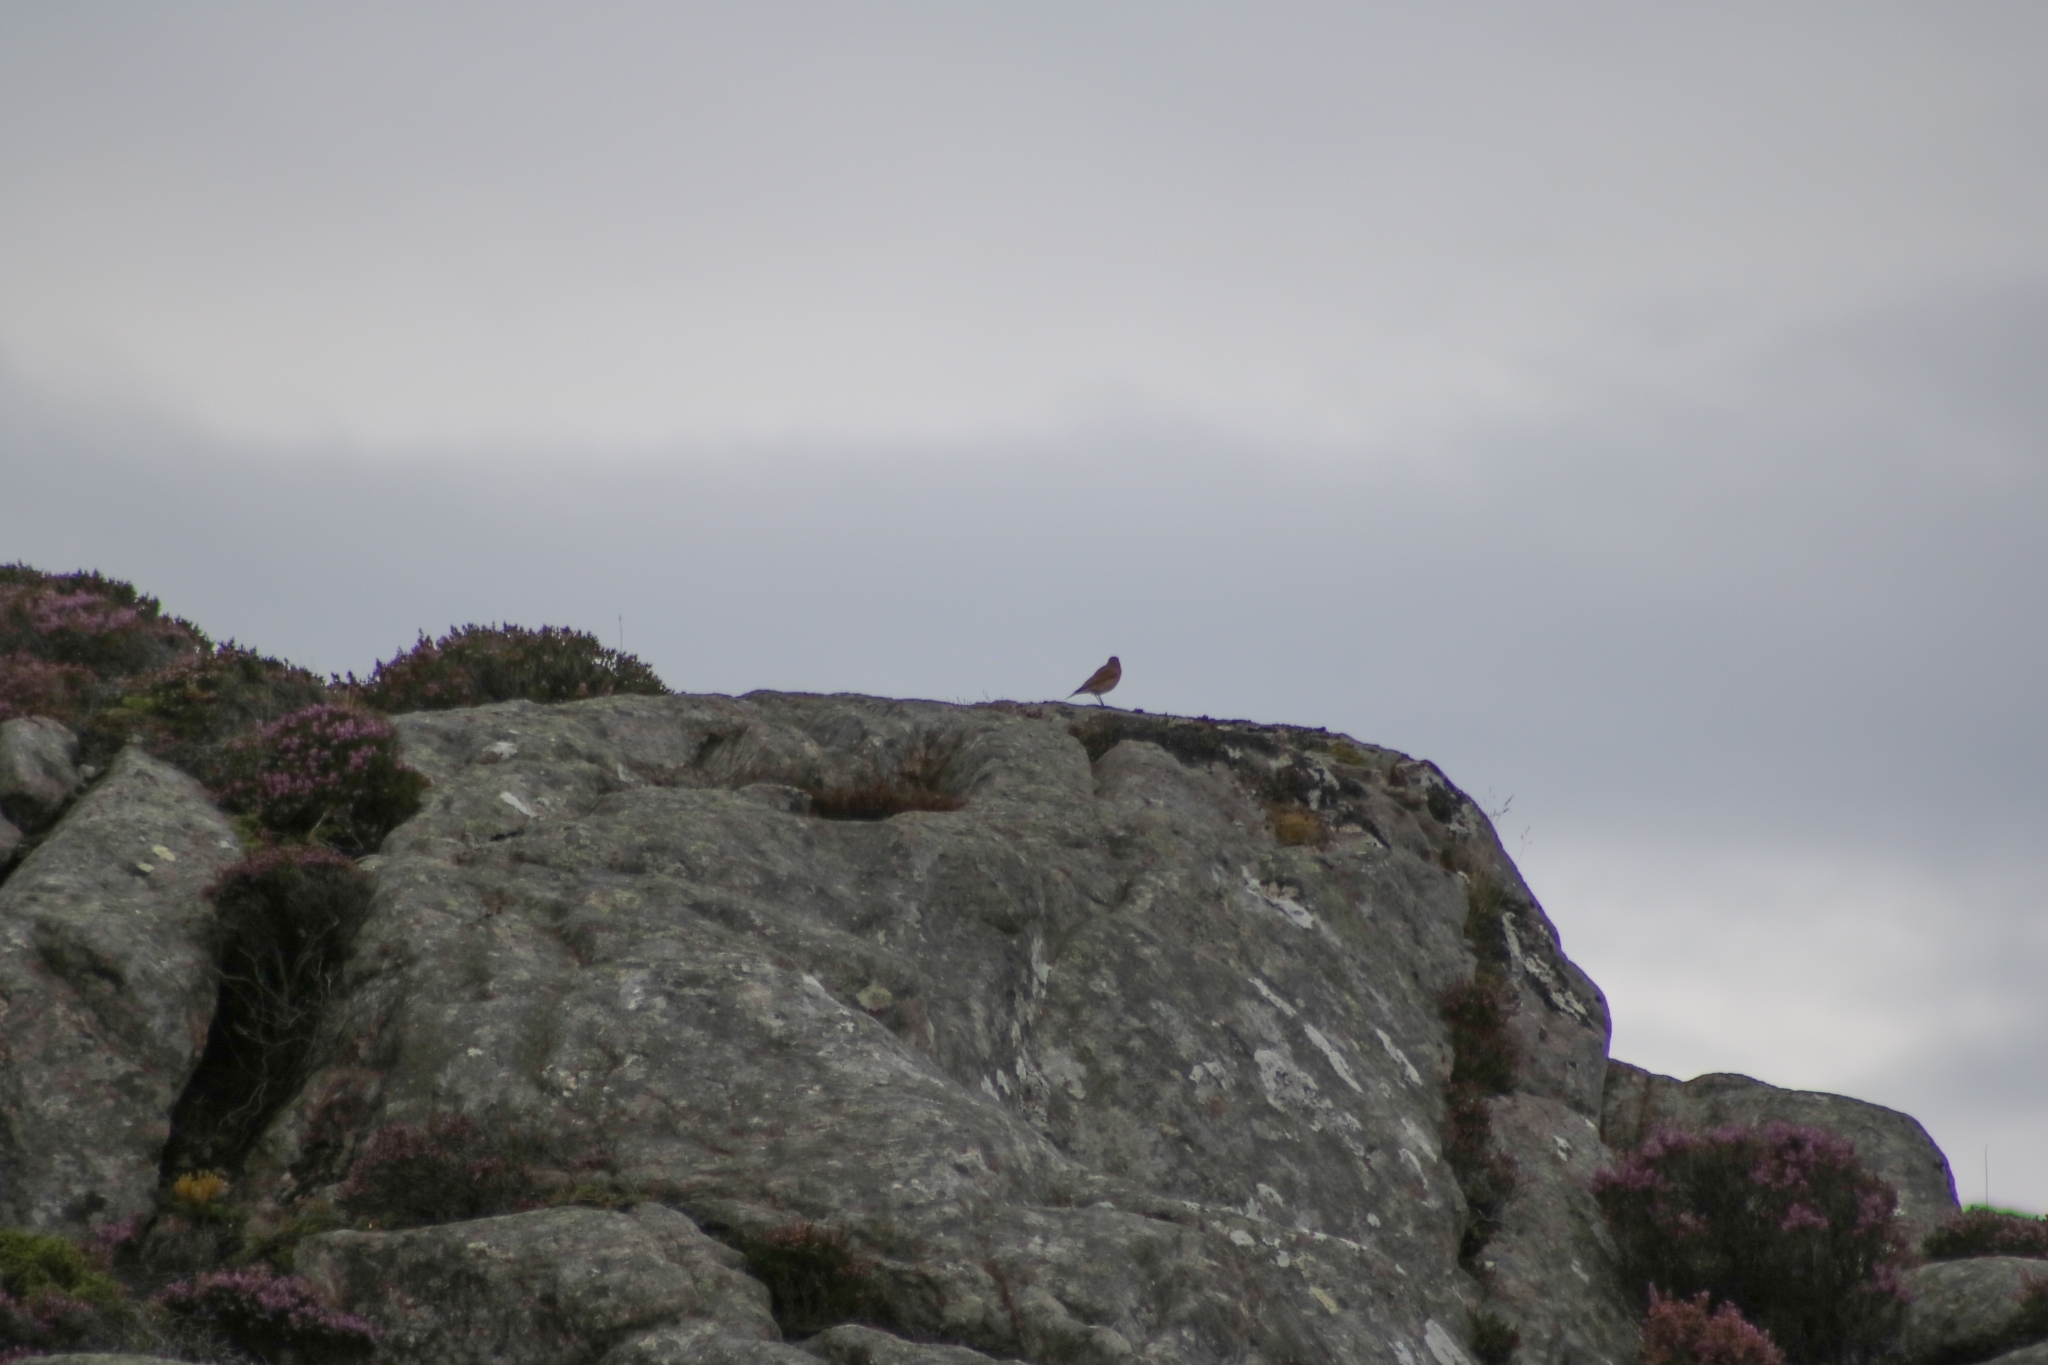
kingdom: Animalia
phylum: Chordata
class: Aves
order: Passeriformes
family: Muscicapidae
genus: Oenanthe
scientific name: Oenanthe oenanthe
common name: Northern wheatear
